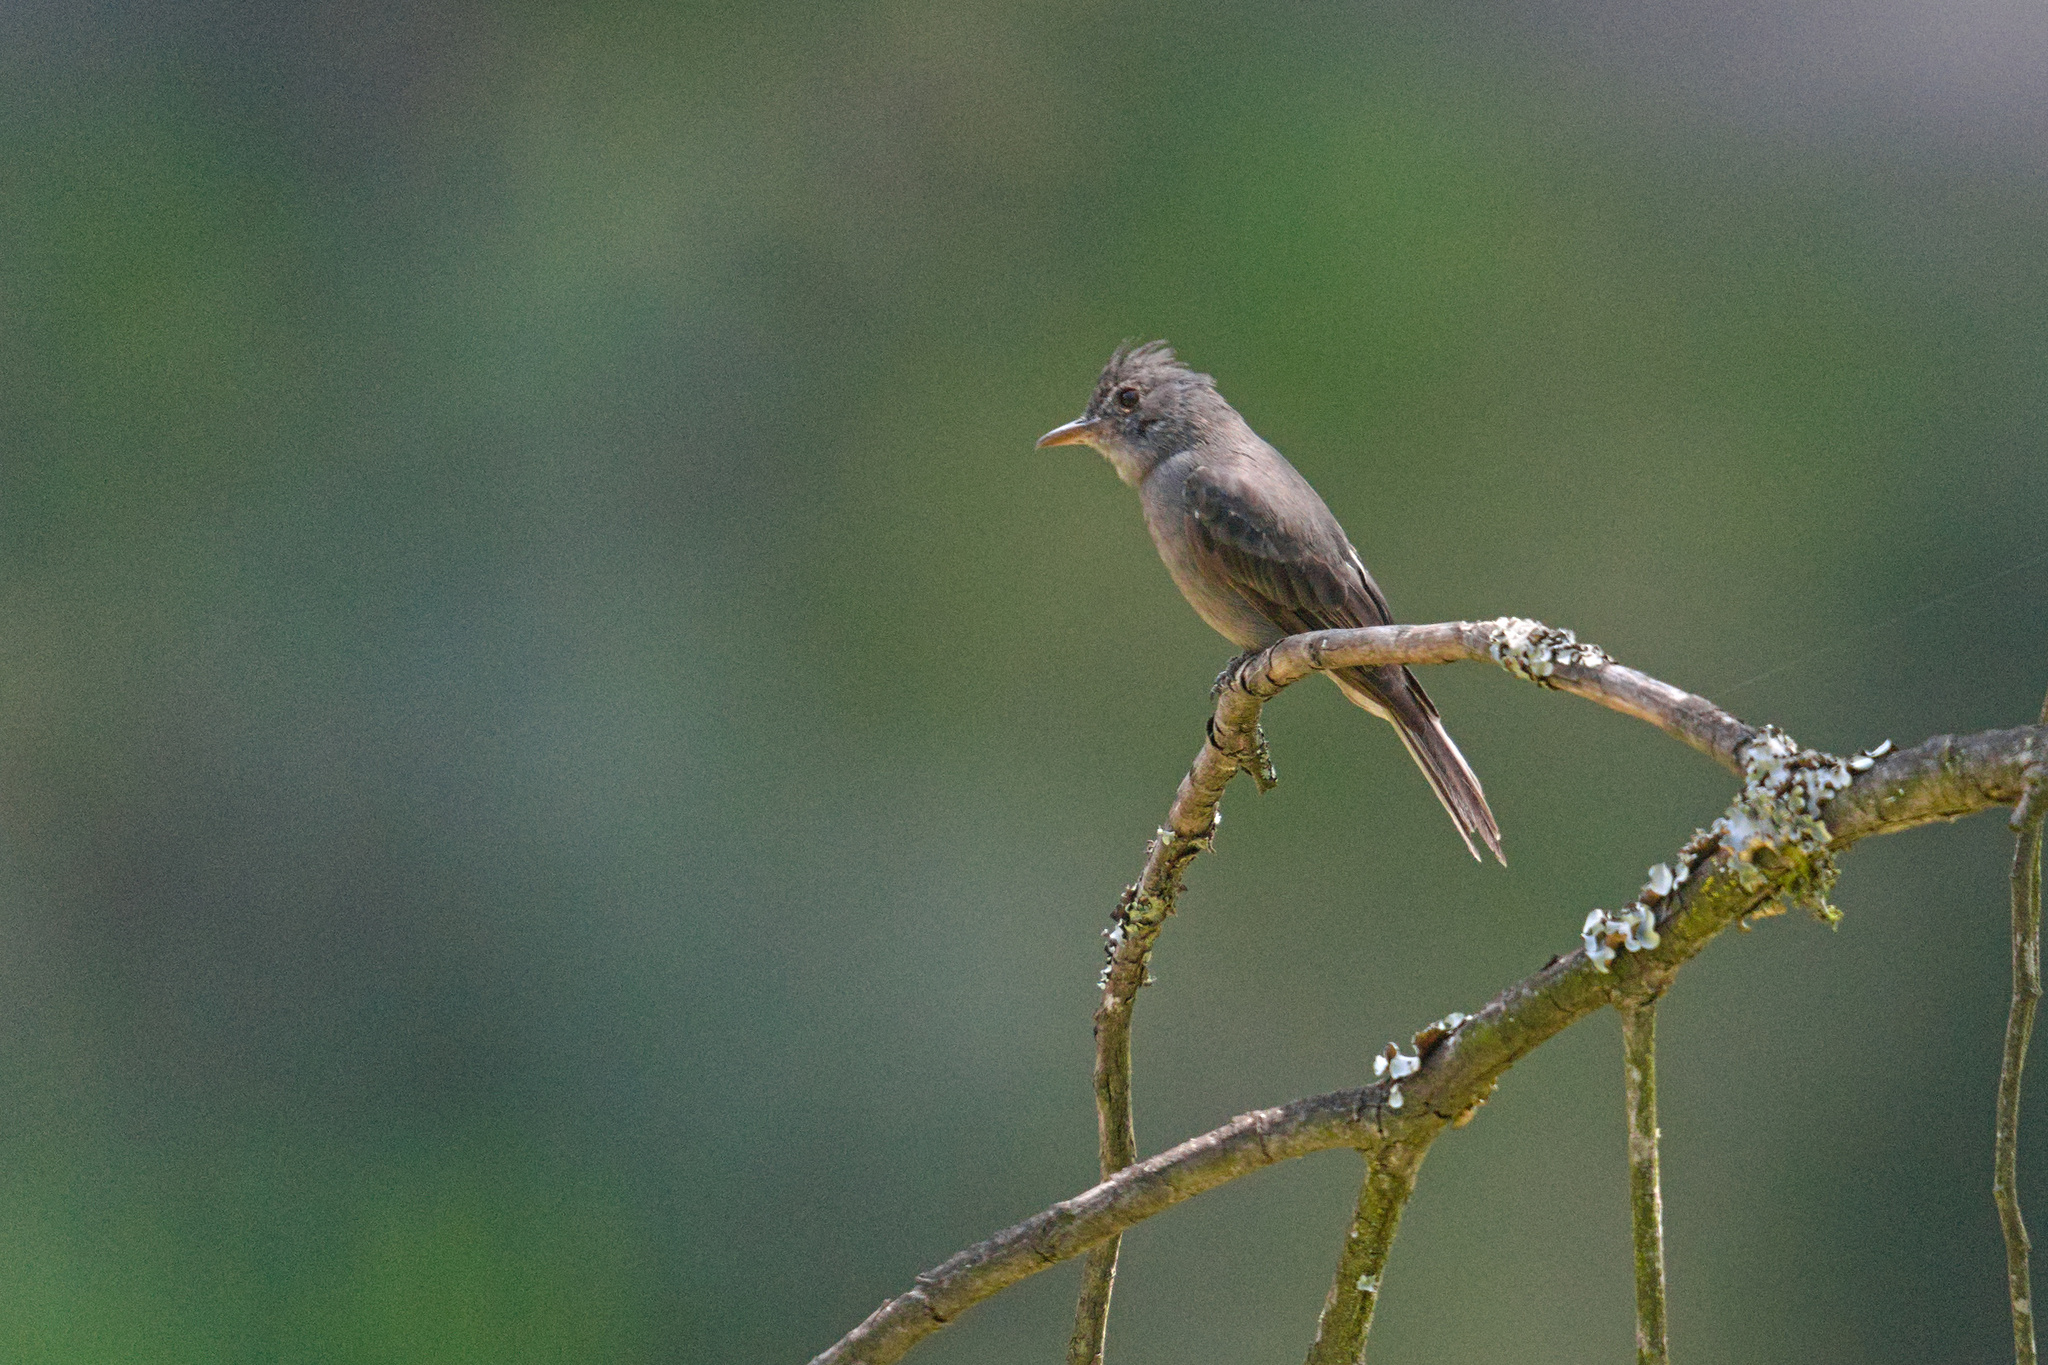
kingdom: Animalia
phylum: Chordata
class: Aves
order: Passeriformes
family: Tyrannidae
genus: Contopus
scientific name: Contopus fumigatus
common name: Smoke-colored pewee
